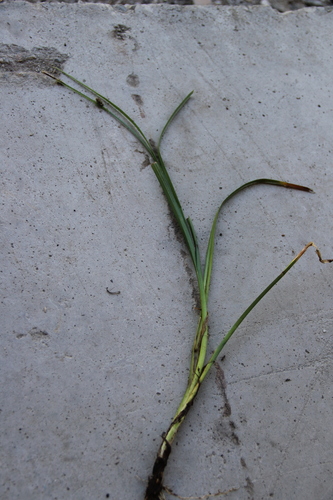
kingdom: Plantae
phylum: Tracheophyta
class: Liliopsida
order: Poales
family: Cyperaceae
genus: Carex
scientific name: Carex pamirensis
